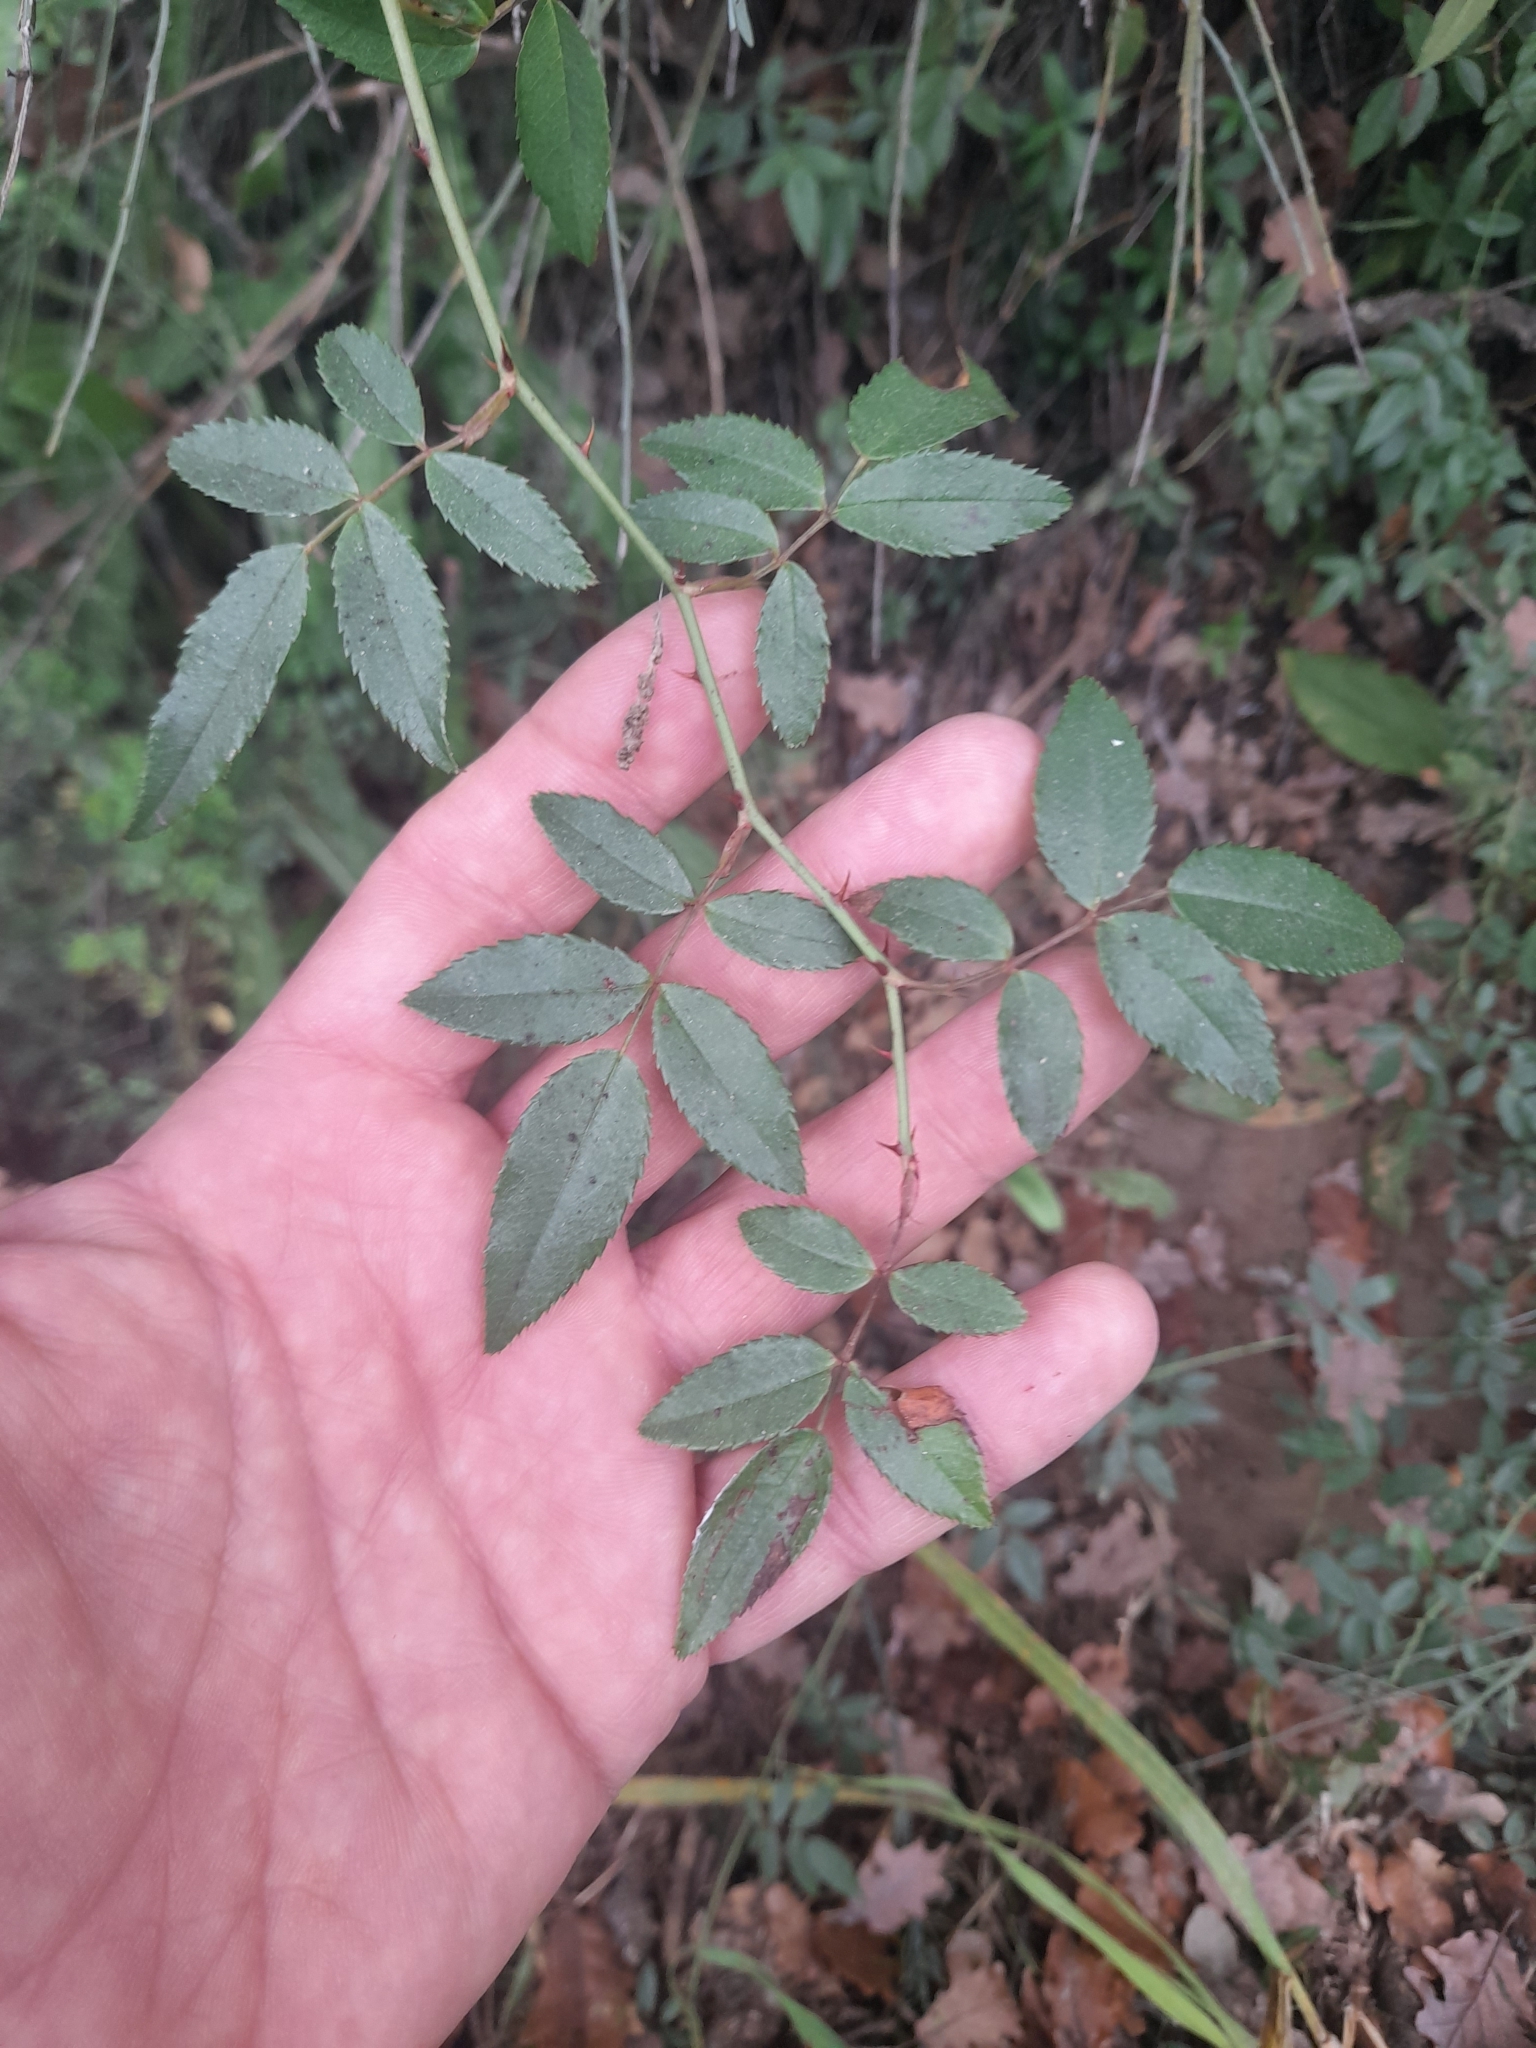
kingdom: Plantae
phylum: Tracheophyta
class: Magnoliopsida
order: Rosales
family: Rosaceae
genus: Rosa
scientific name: Rosa sempervirens
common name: Evergreen rose
